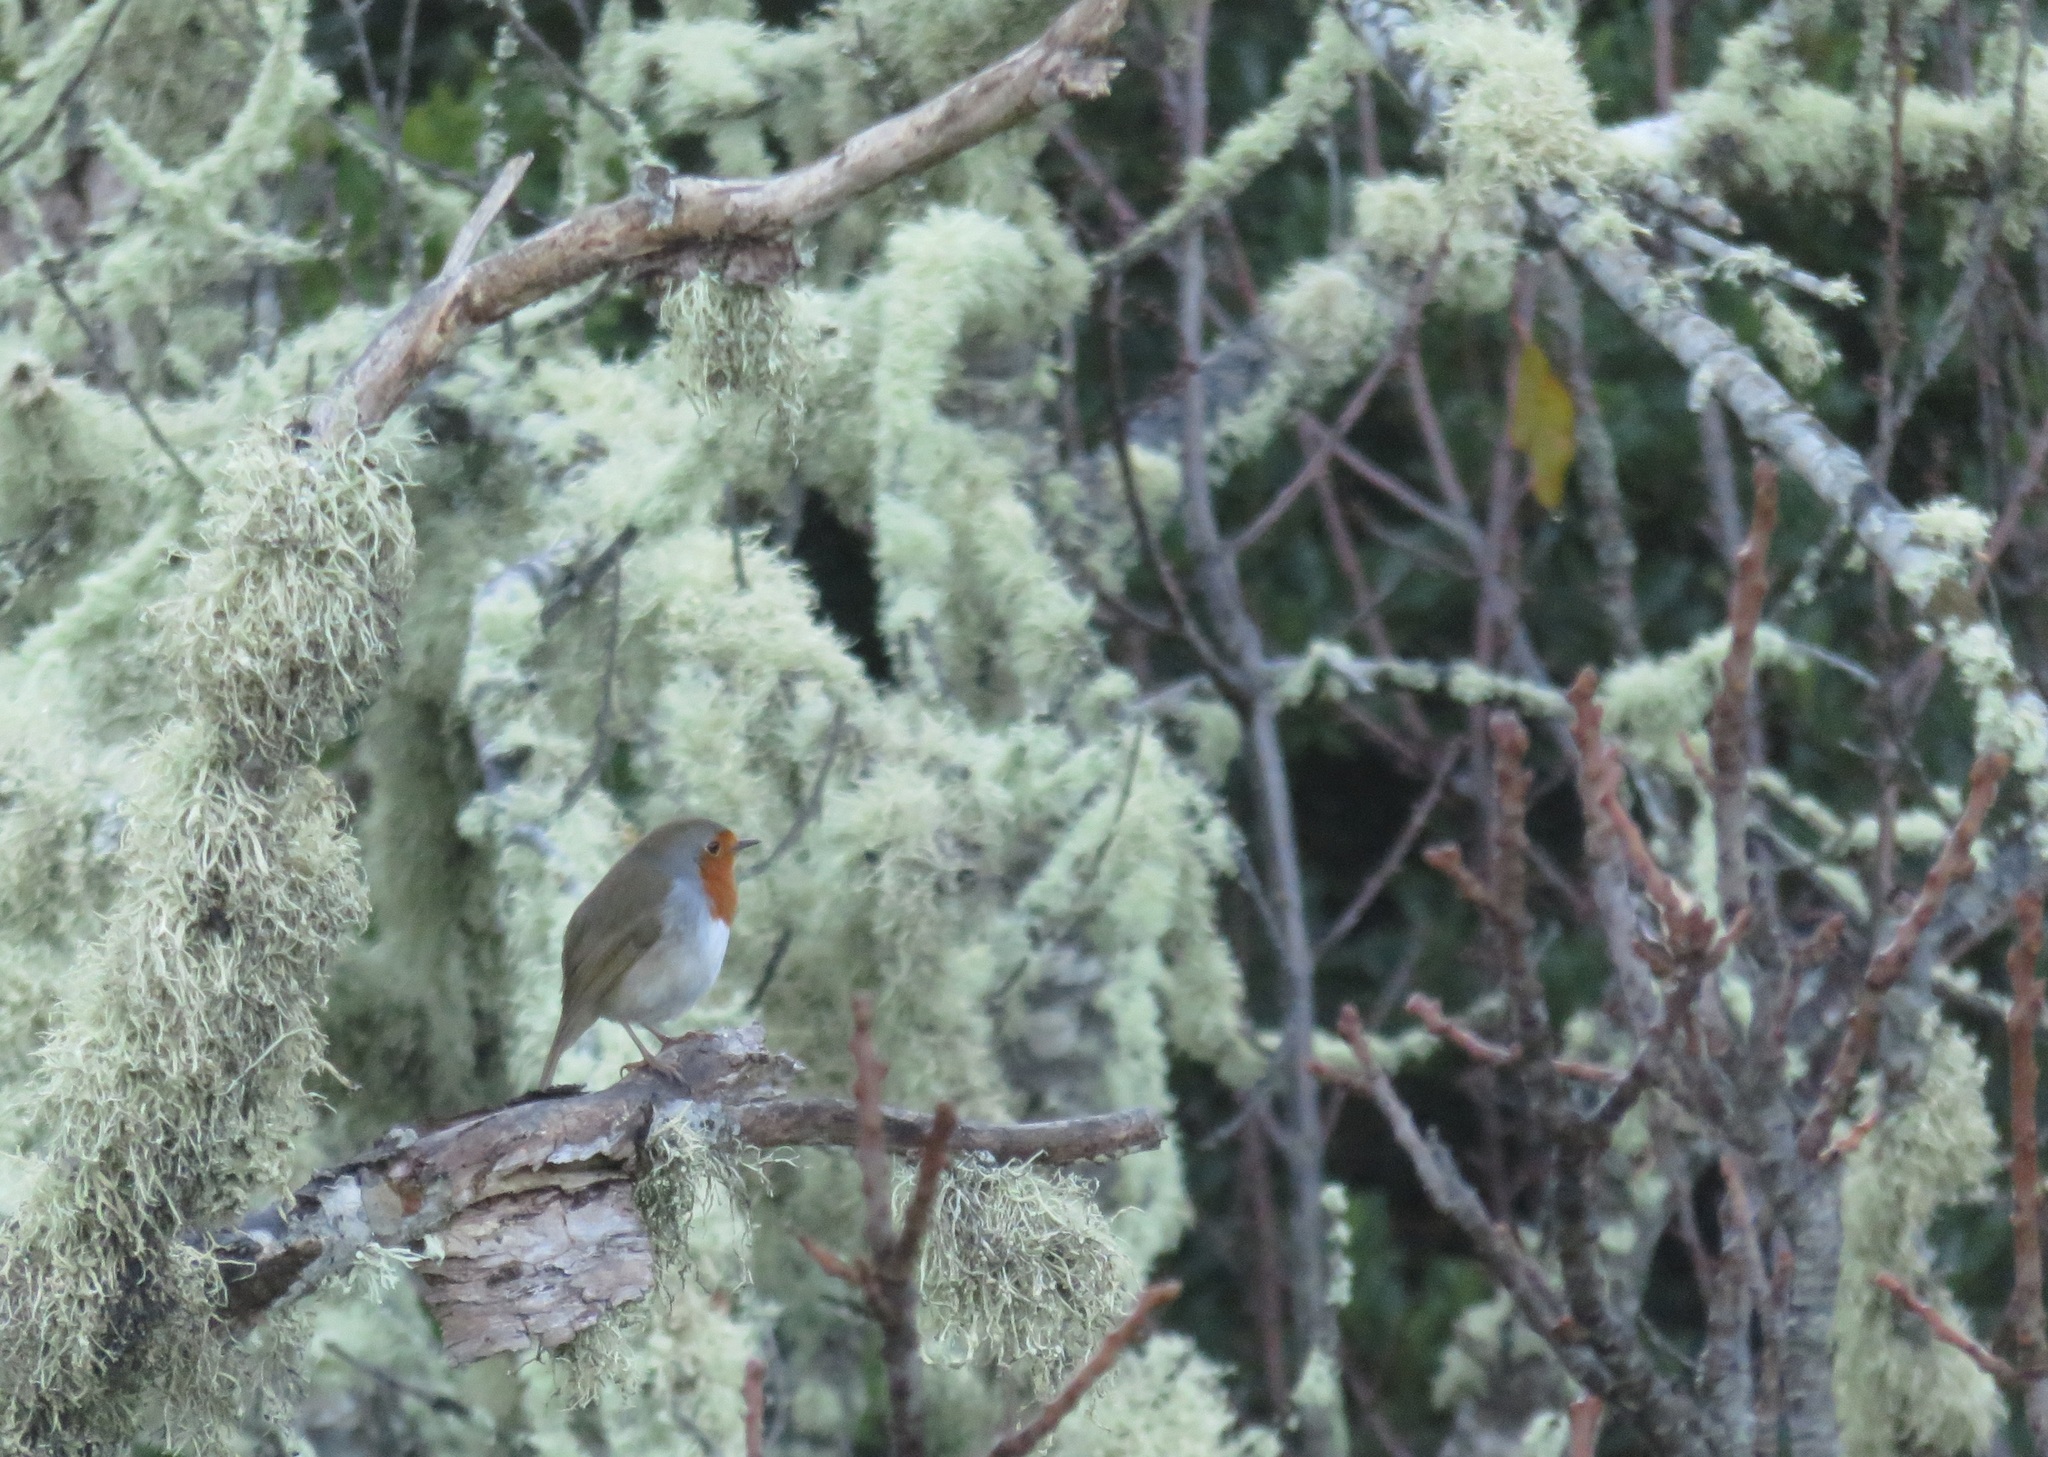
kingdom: Animalia
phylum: Chordata
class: Aves
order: Passeriformes
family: Muscicapidae
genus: Erithacus
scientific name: Erithacus rubecula
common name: European robin
